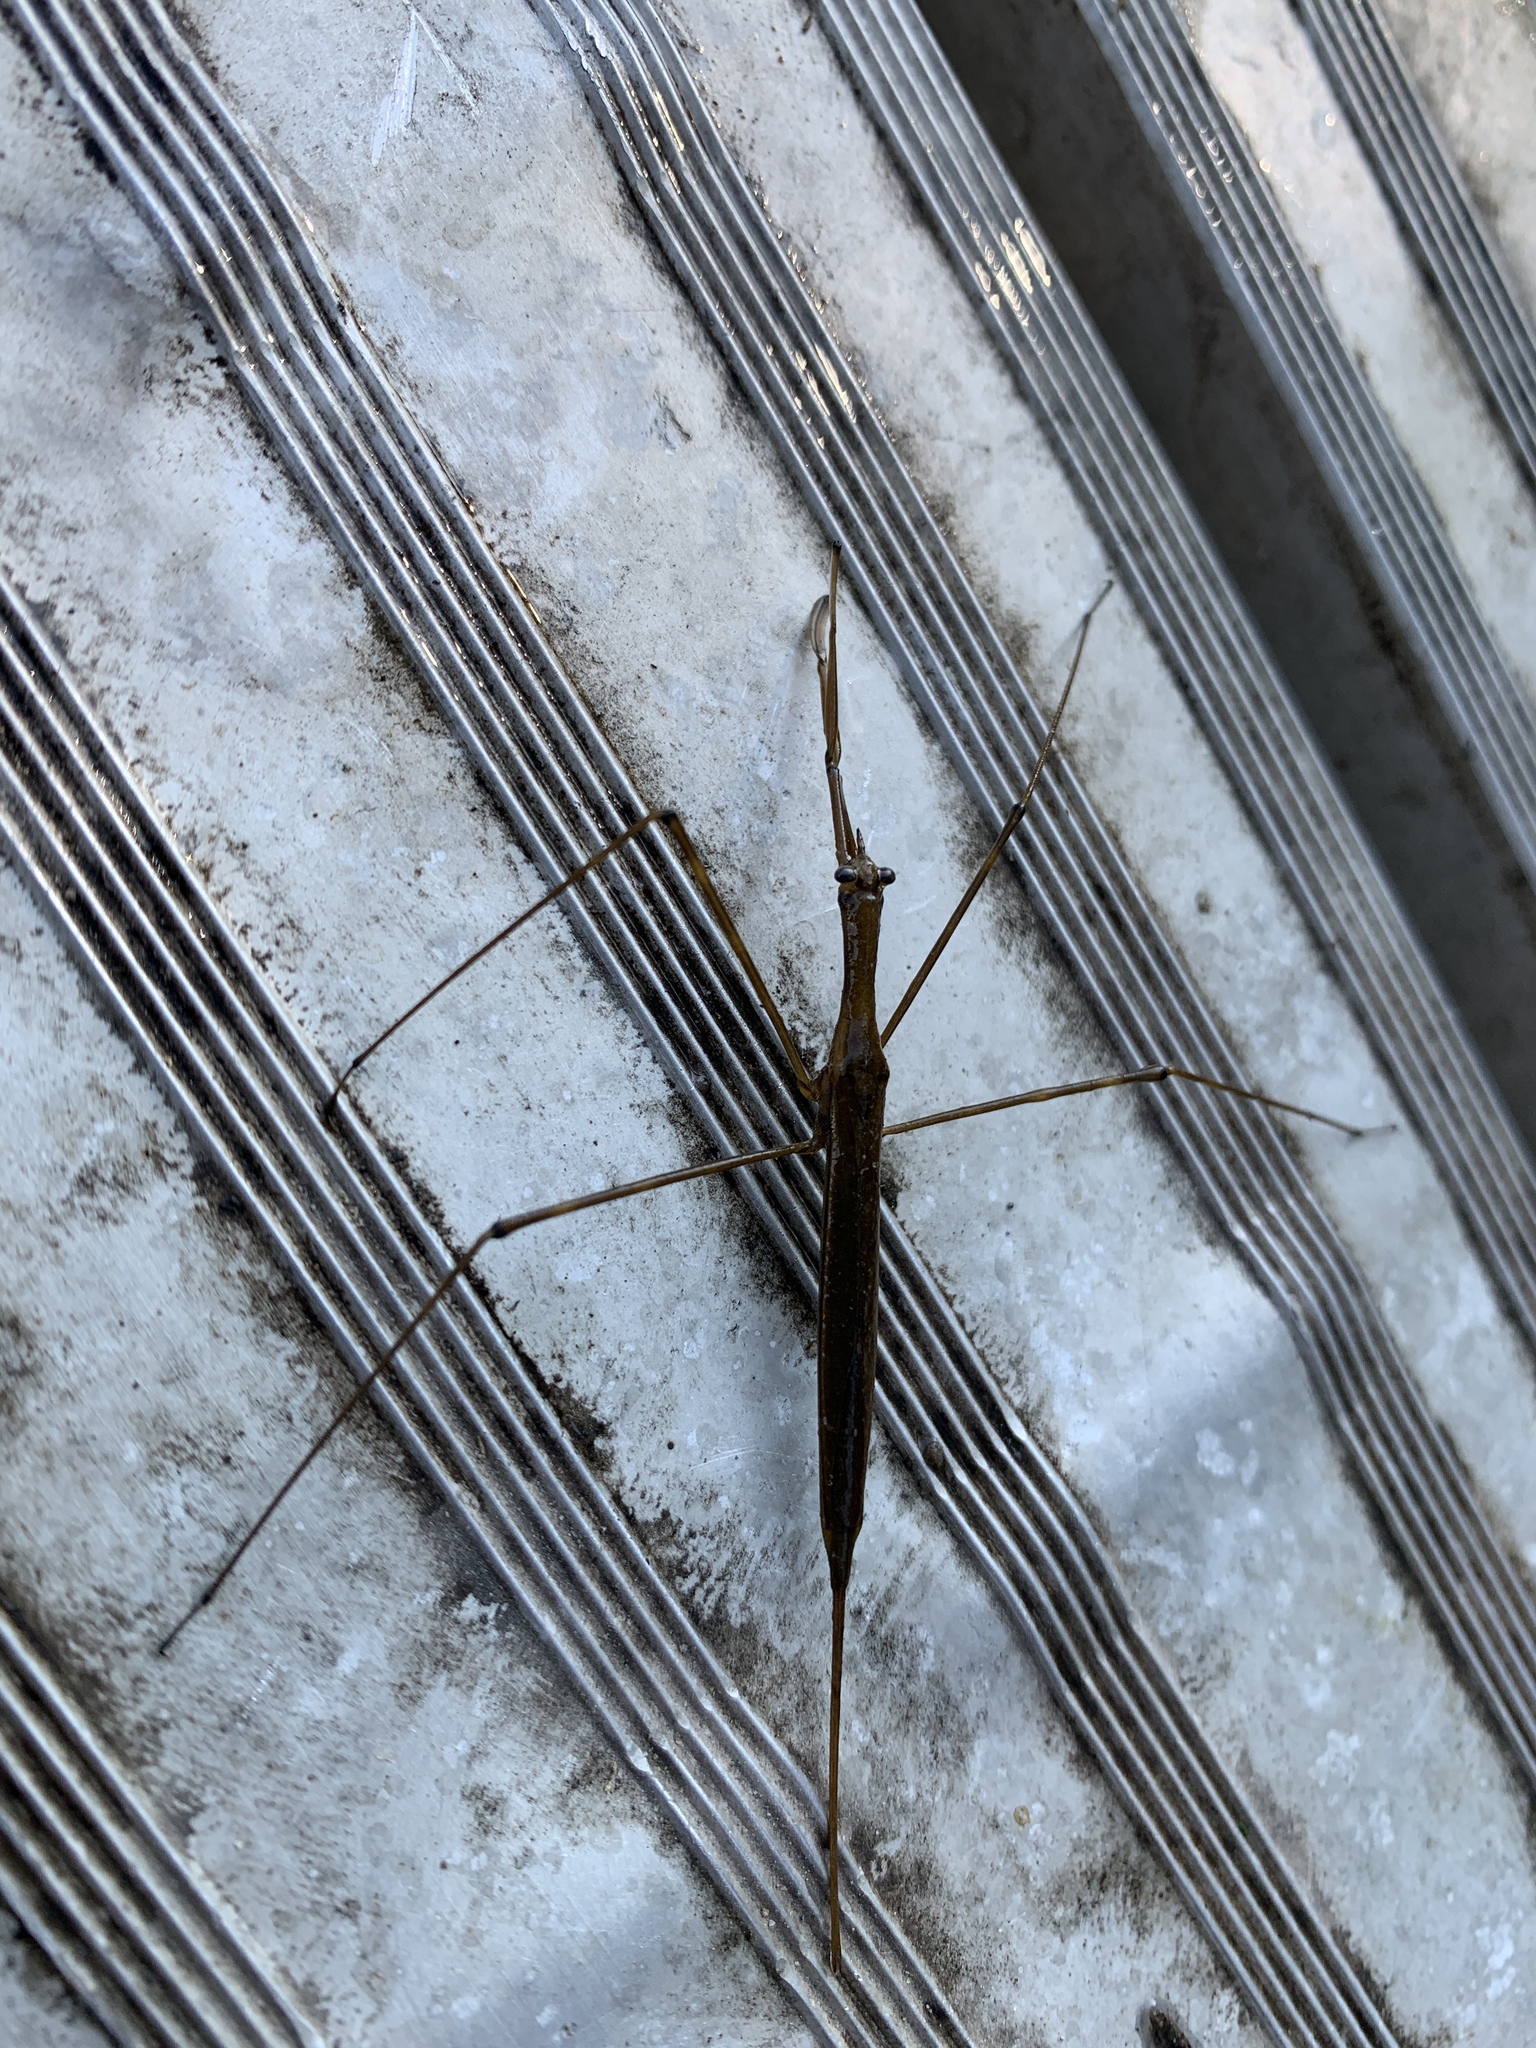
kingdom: Animalia
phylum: Arthropoda
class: Insecta
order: Hemiptera
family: Nepidae
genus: Ranatra
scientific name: Ranatra
